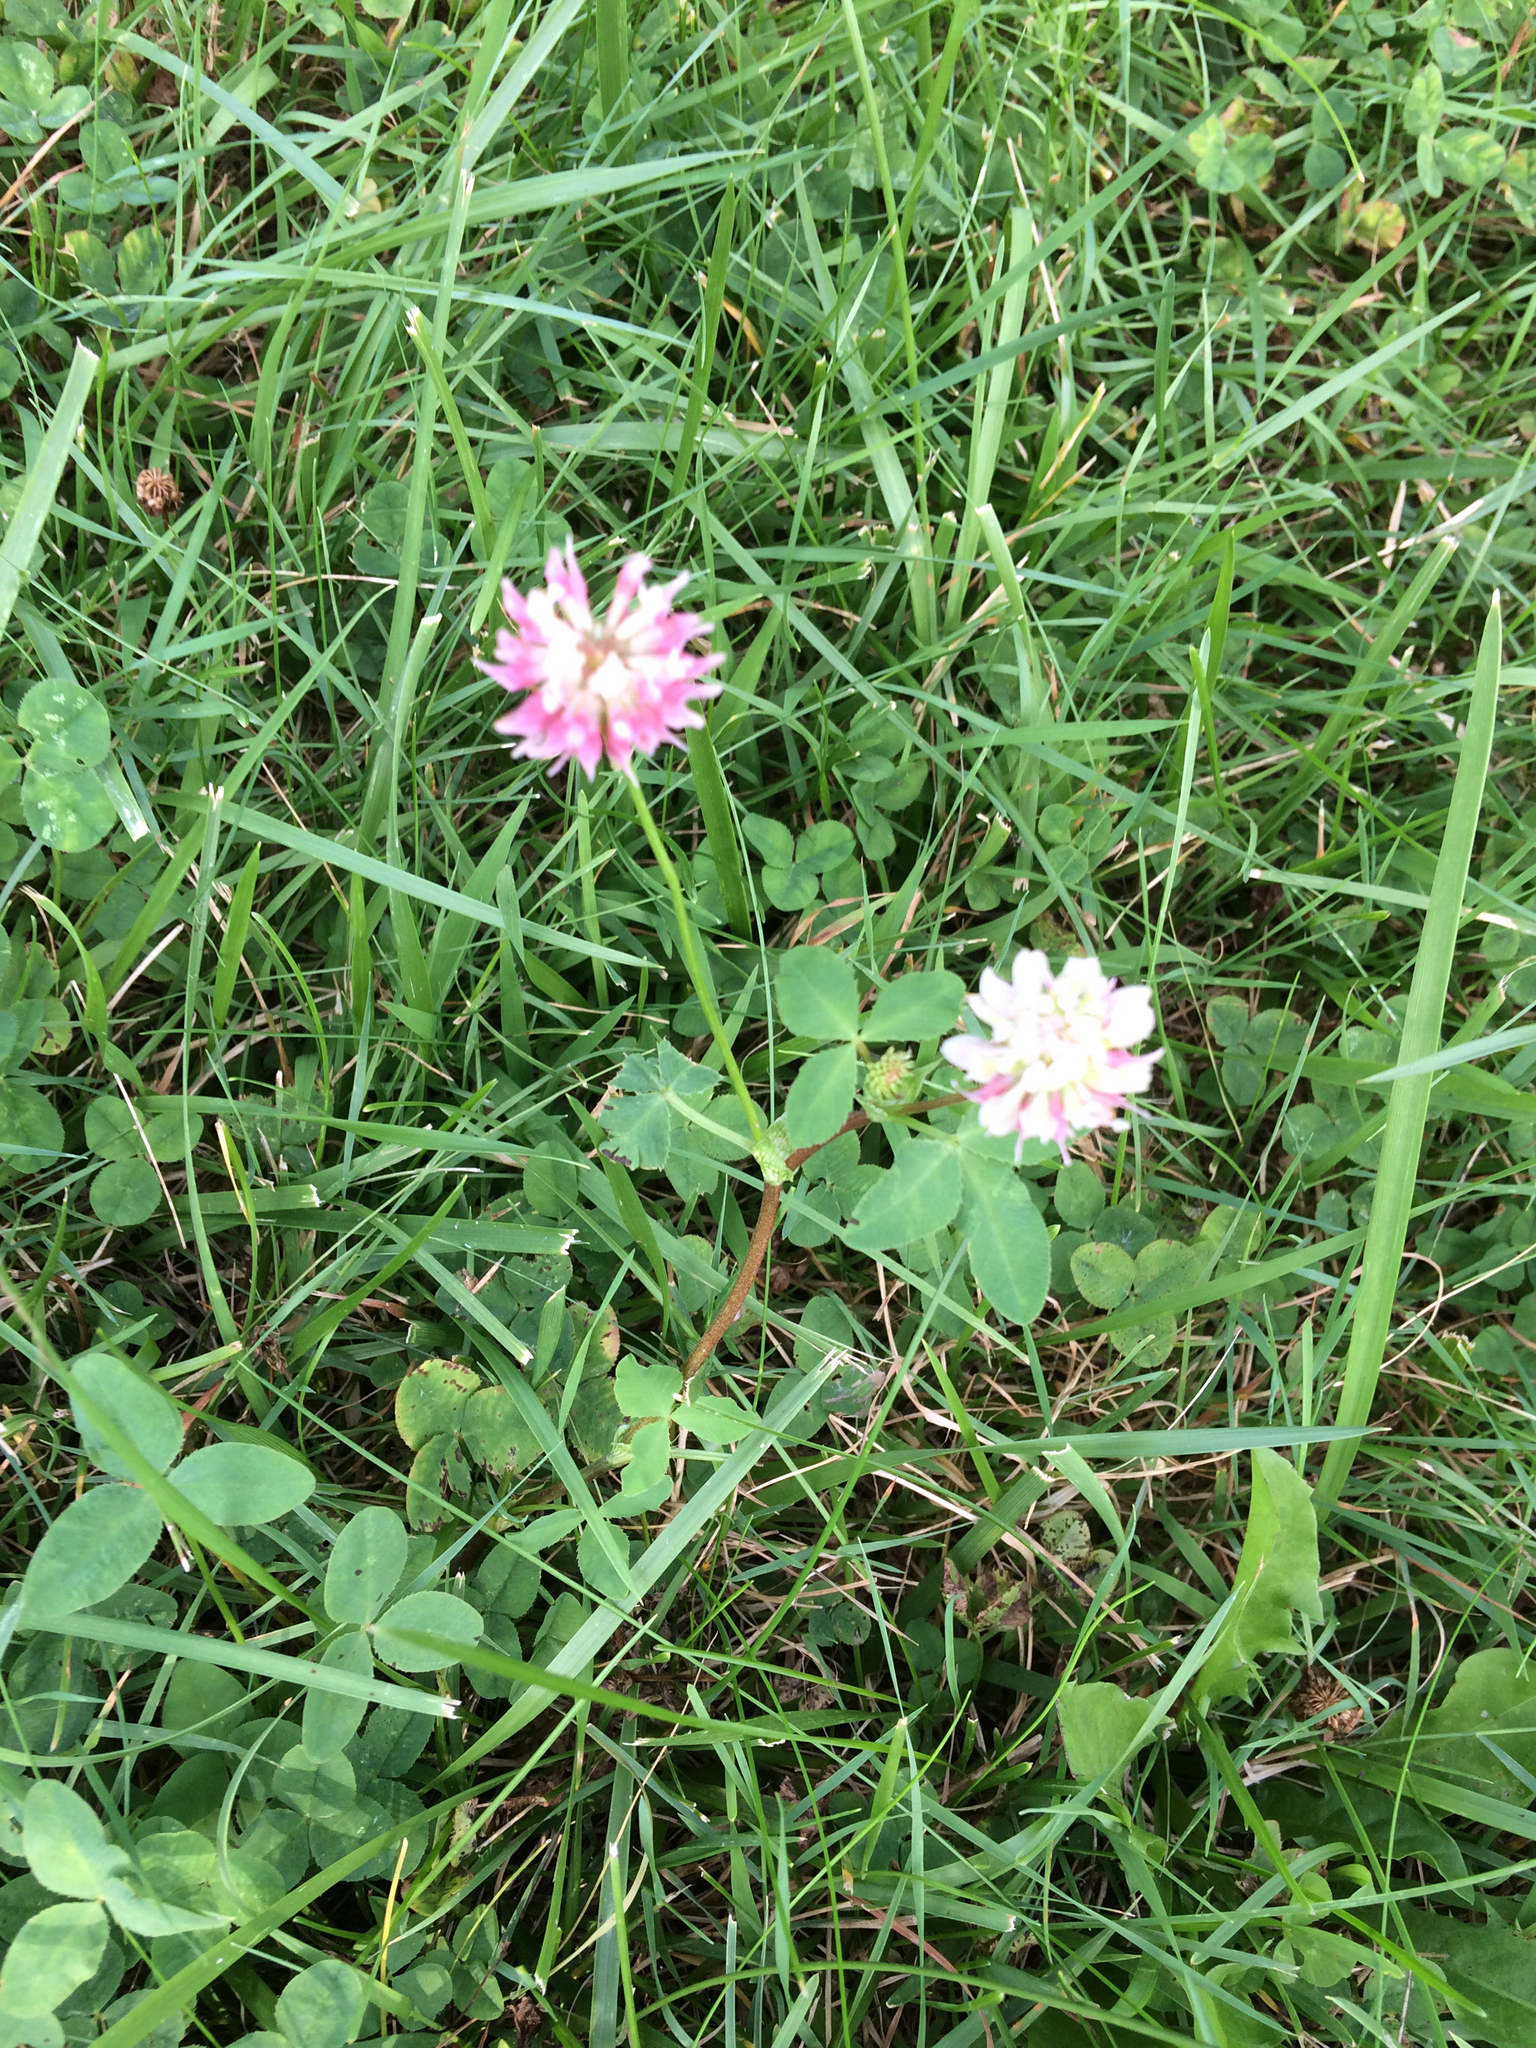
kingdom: Plantae
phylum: Tracheophyta
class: Magnoliopsida
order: Fabales
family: Fabaceae
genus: Trifolium
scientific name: Trifolium hybridum
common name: Alsike clover
